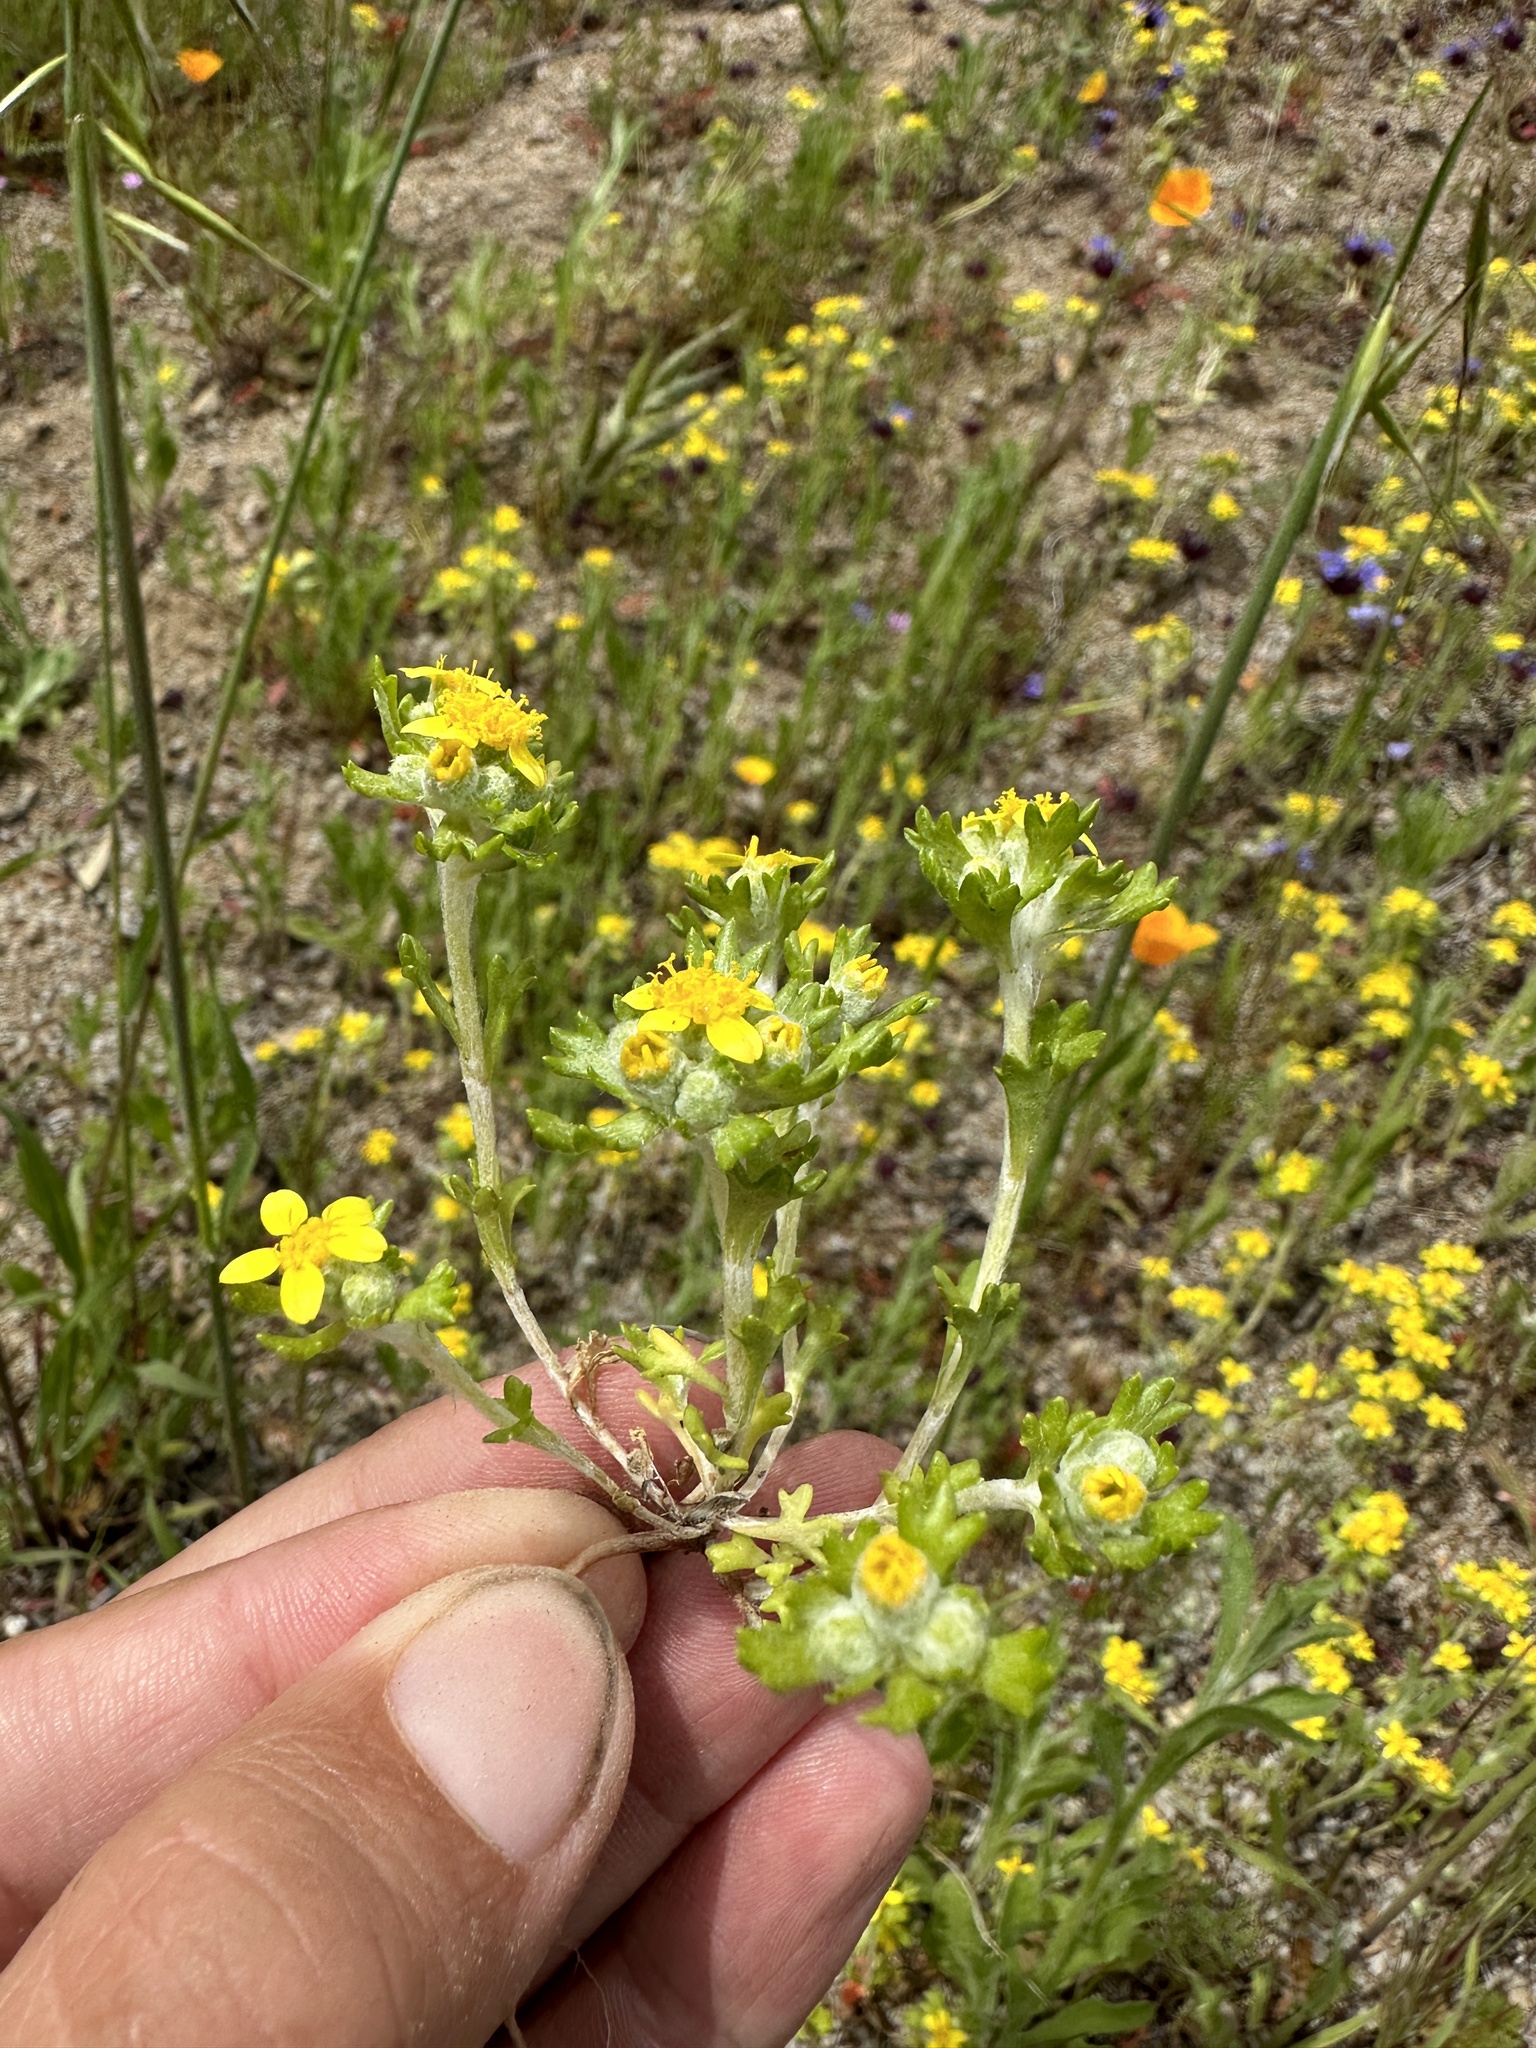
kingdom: Plantae
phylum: Tracheophyta
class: Magnoliopsida
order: Asterales
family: Asteraceae
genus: Eriophyllum
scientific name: Eriophyllum multicaule
